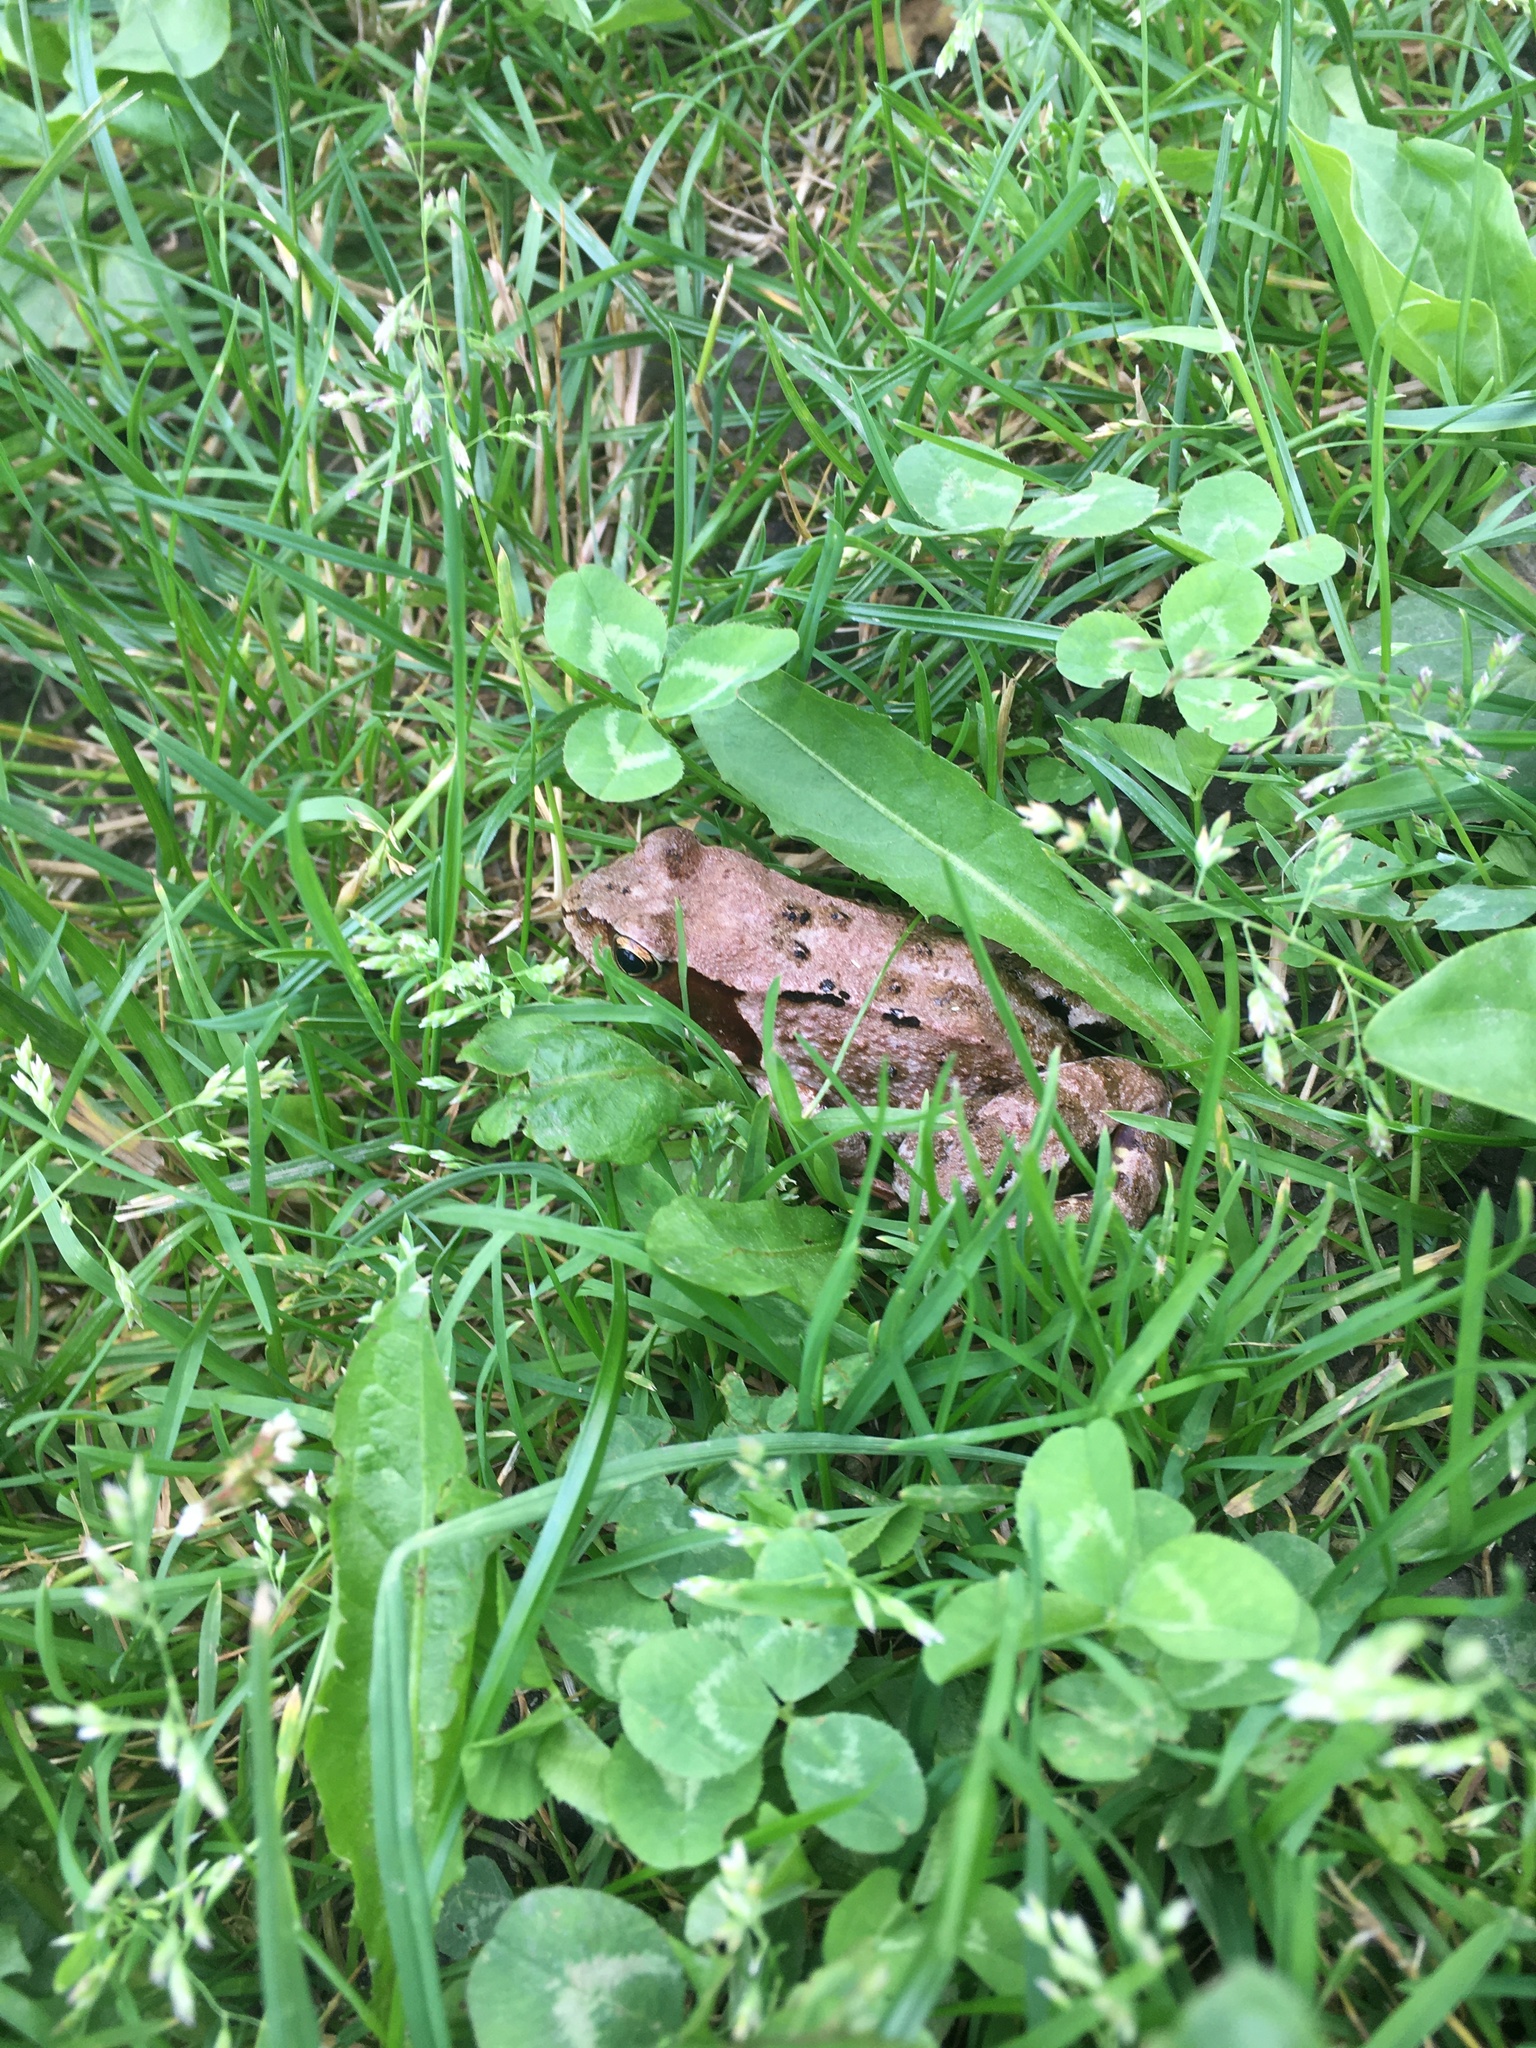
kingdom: Animalia
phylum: Chordata
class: Amphibia
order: Anura
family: Ranidae
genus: Rana
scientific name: Rana temporaria
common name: Common frog
